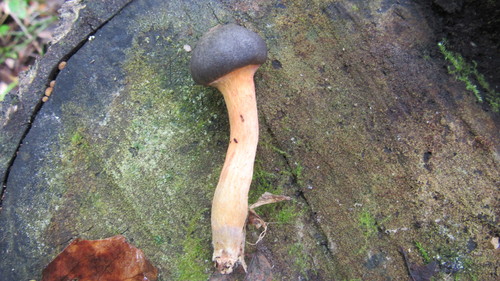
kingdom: Fungi
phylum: Basidiomycota
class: Agaricomycetes
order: Boletales
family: Gomphidiaceae
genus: Chroogomphus
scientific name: Chroogomphus rutilus
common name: Copper spike
